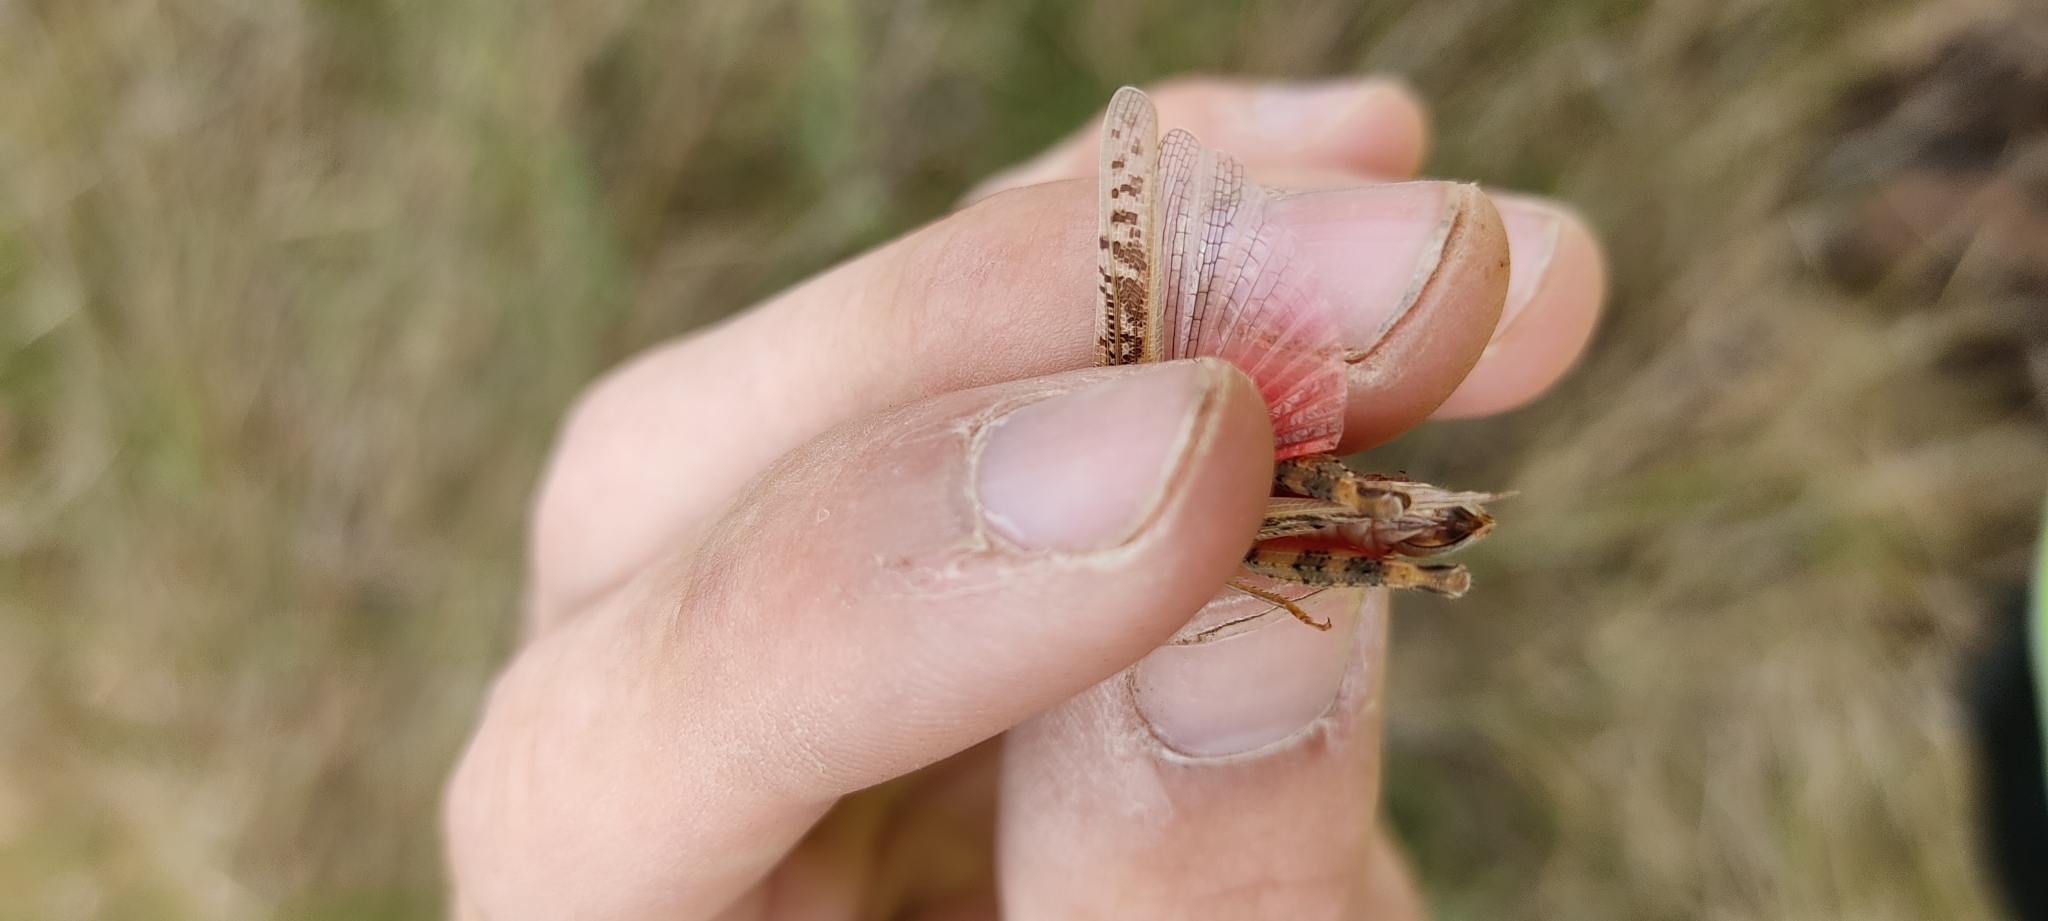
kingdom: Animalia
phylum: Arthropoda
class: Insecta
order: Orthoptera
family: Acrididae
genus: Calliptamus
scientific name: Calliptamus italicus
